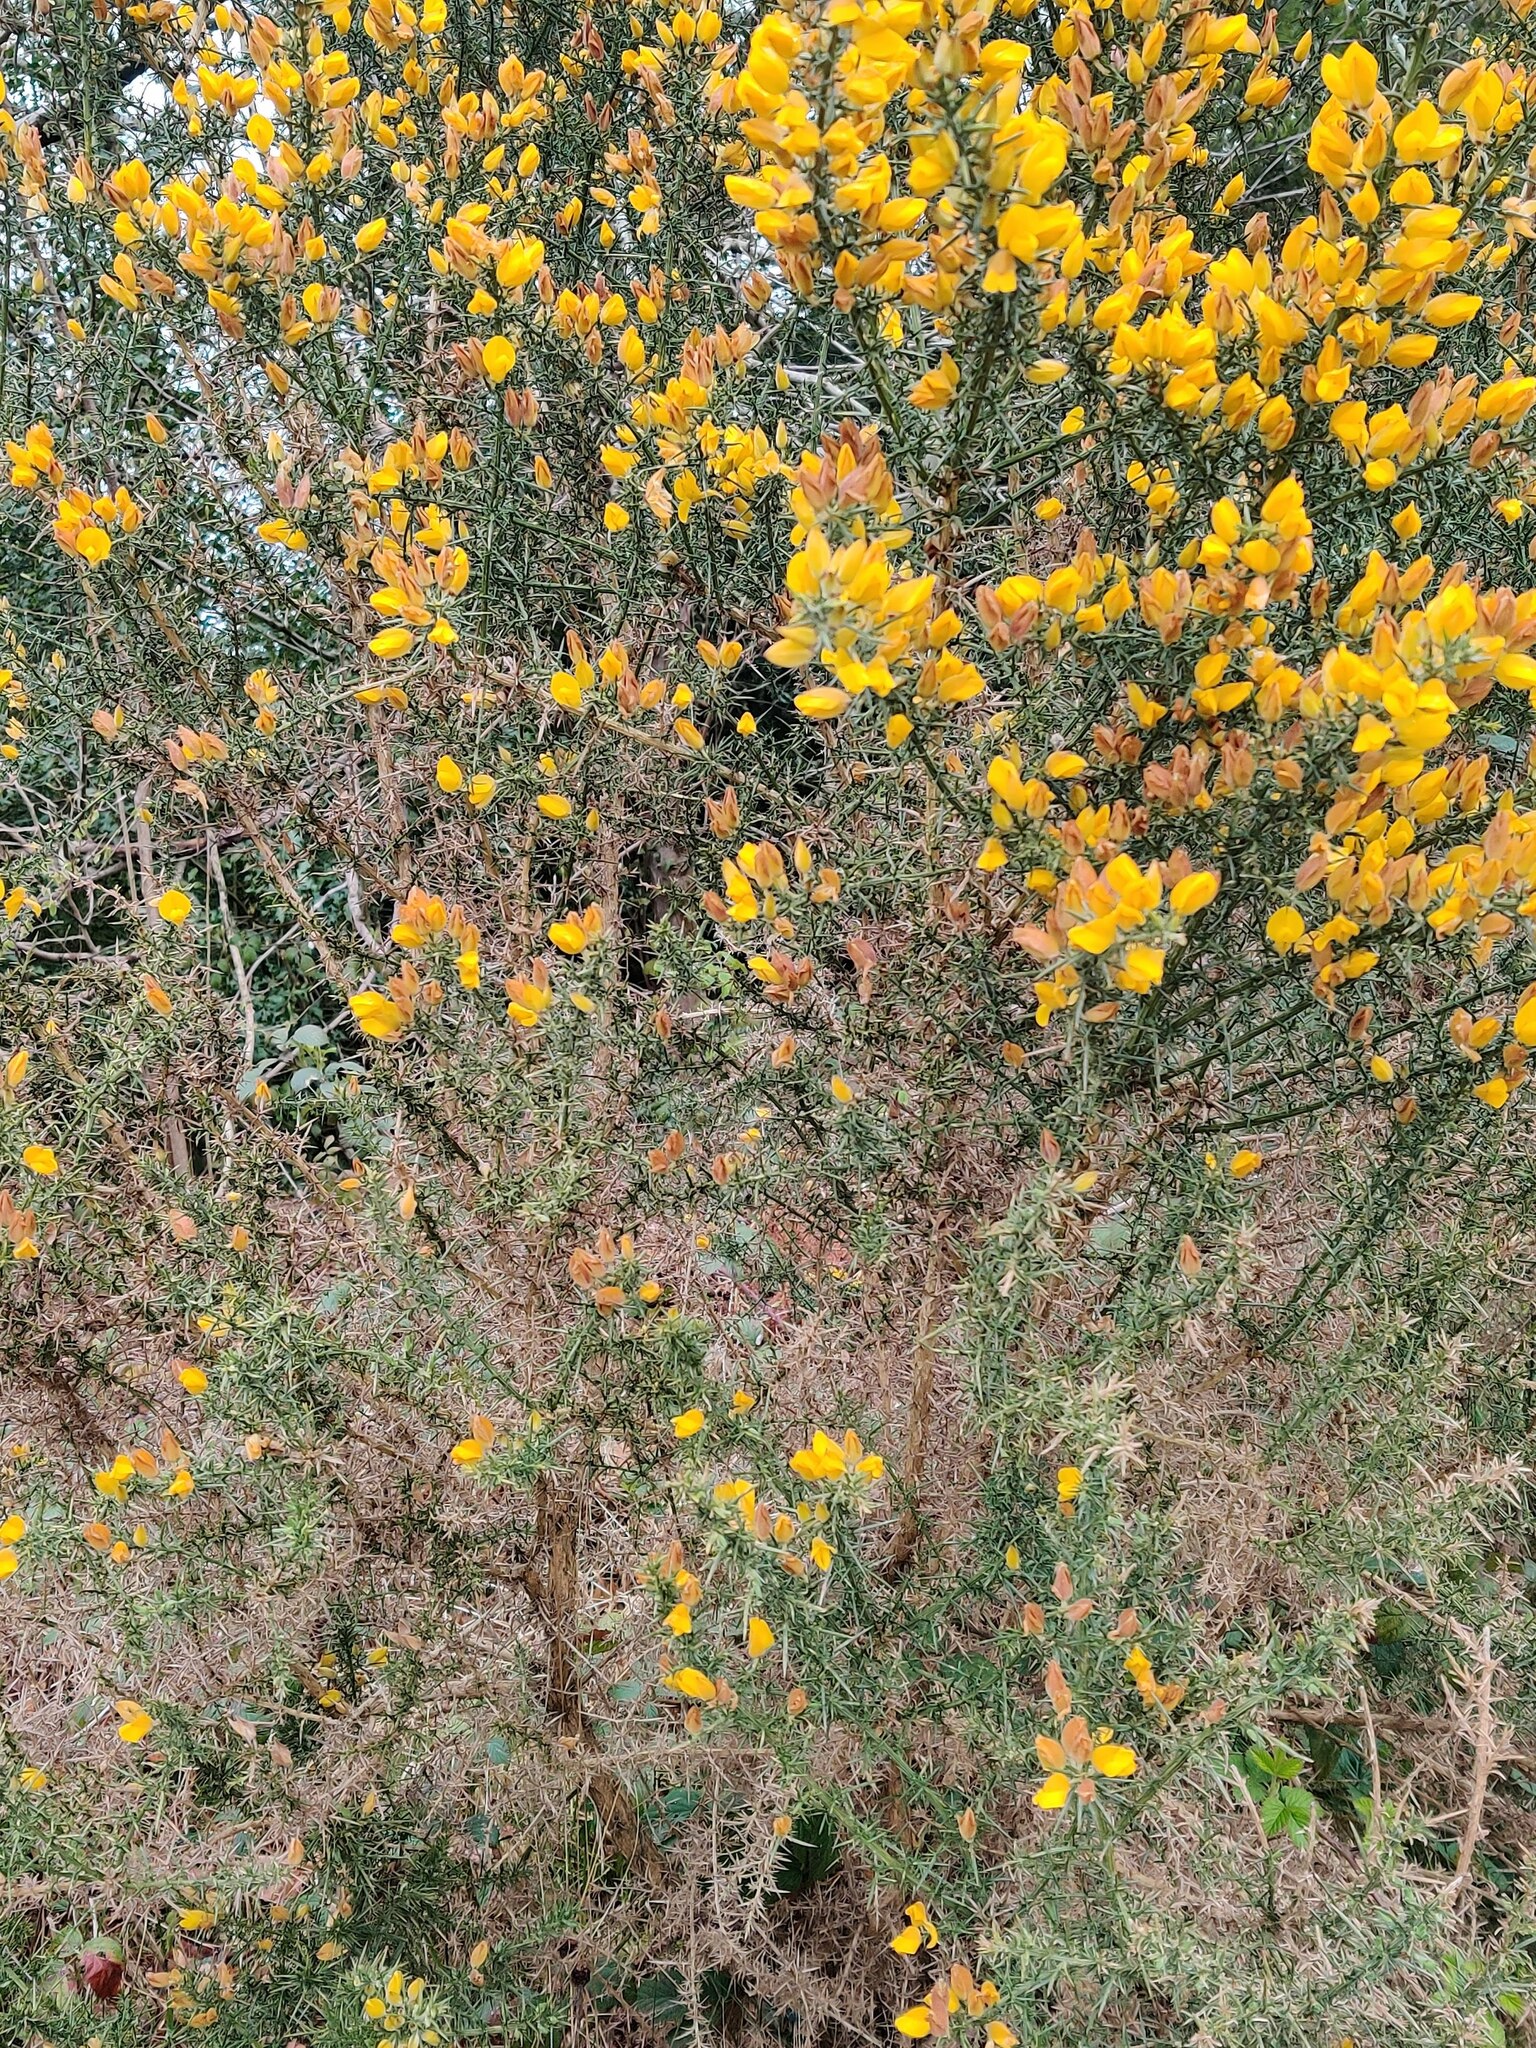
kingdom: Plantae
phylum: Tracheophyta
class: Magnoliopsida
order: Fabales
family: Fabaceae
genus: Ulex
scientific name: Ulex europaeus
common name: Common gorse
